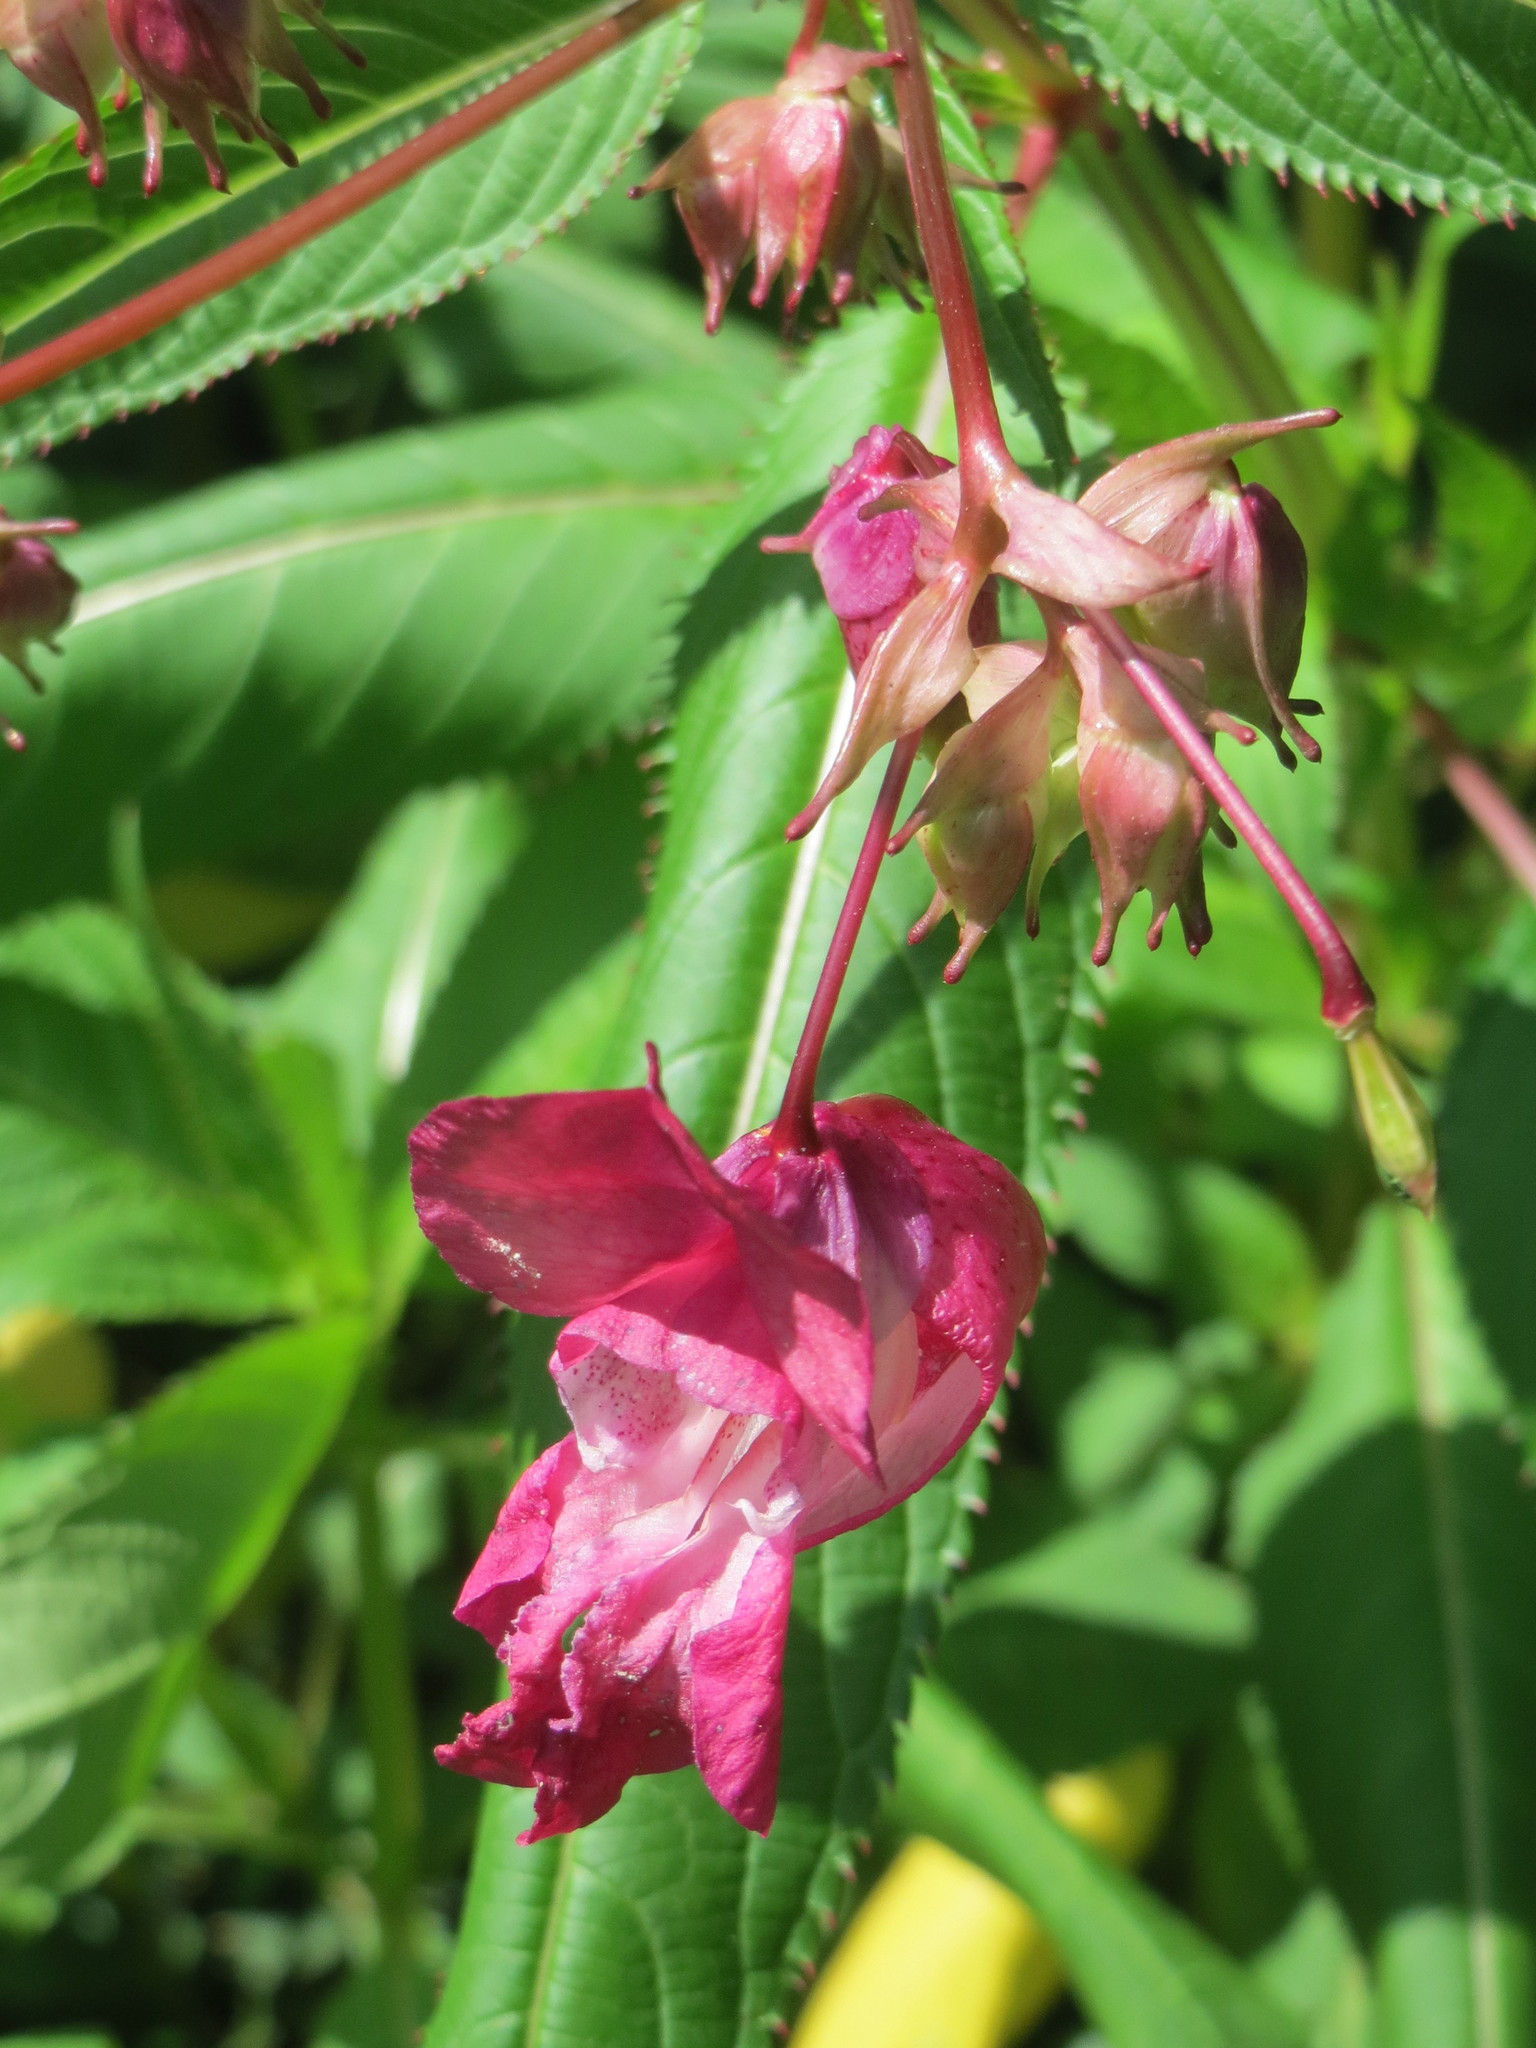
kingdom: Plantae
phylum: Tracheophyta
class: Magnoliopsida
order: Ericales
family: Balsaminaceae
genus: Impatiens
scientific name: Impatiens glandulifera
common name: Himalayan balsam
